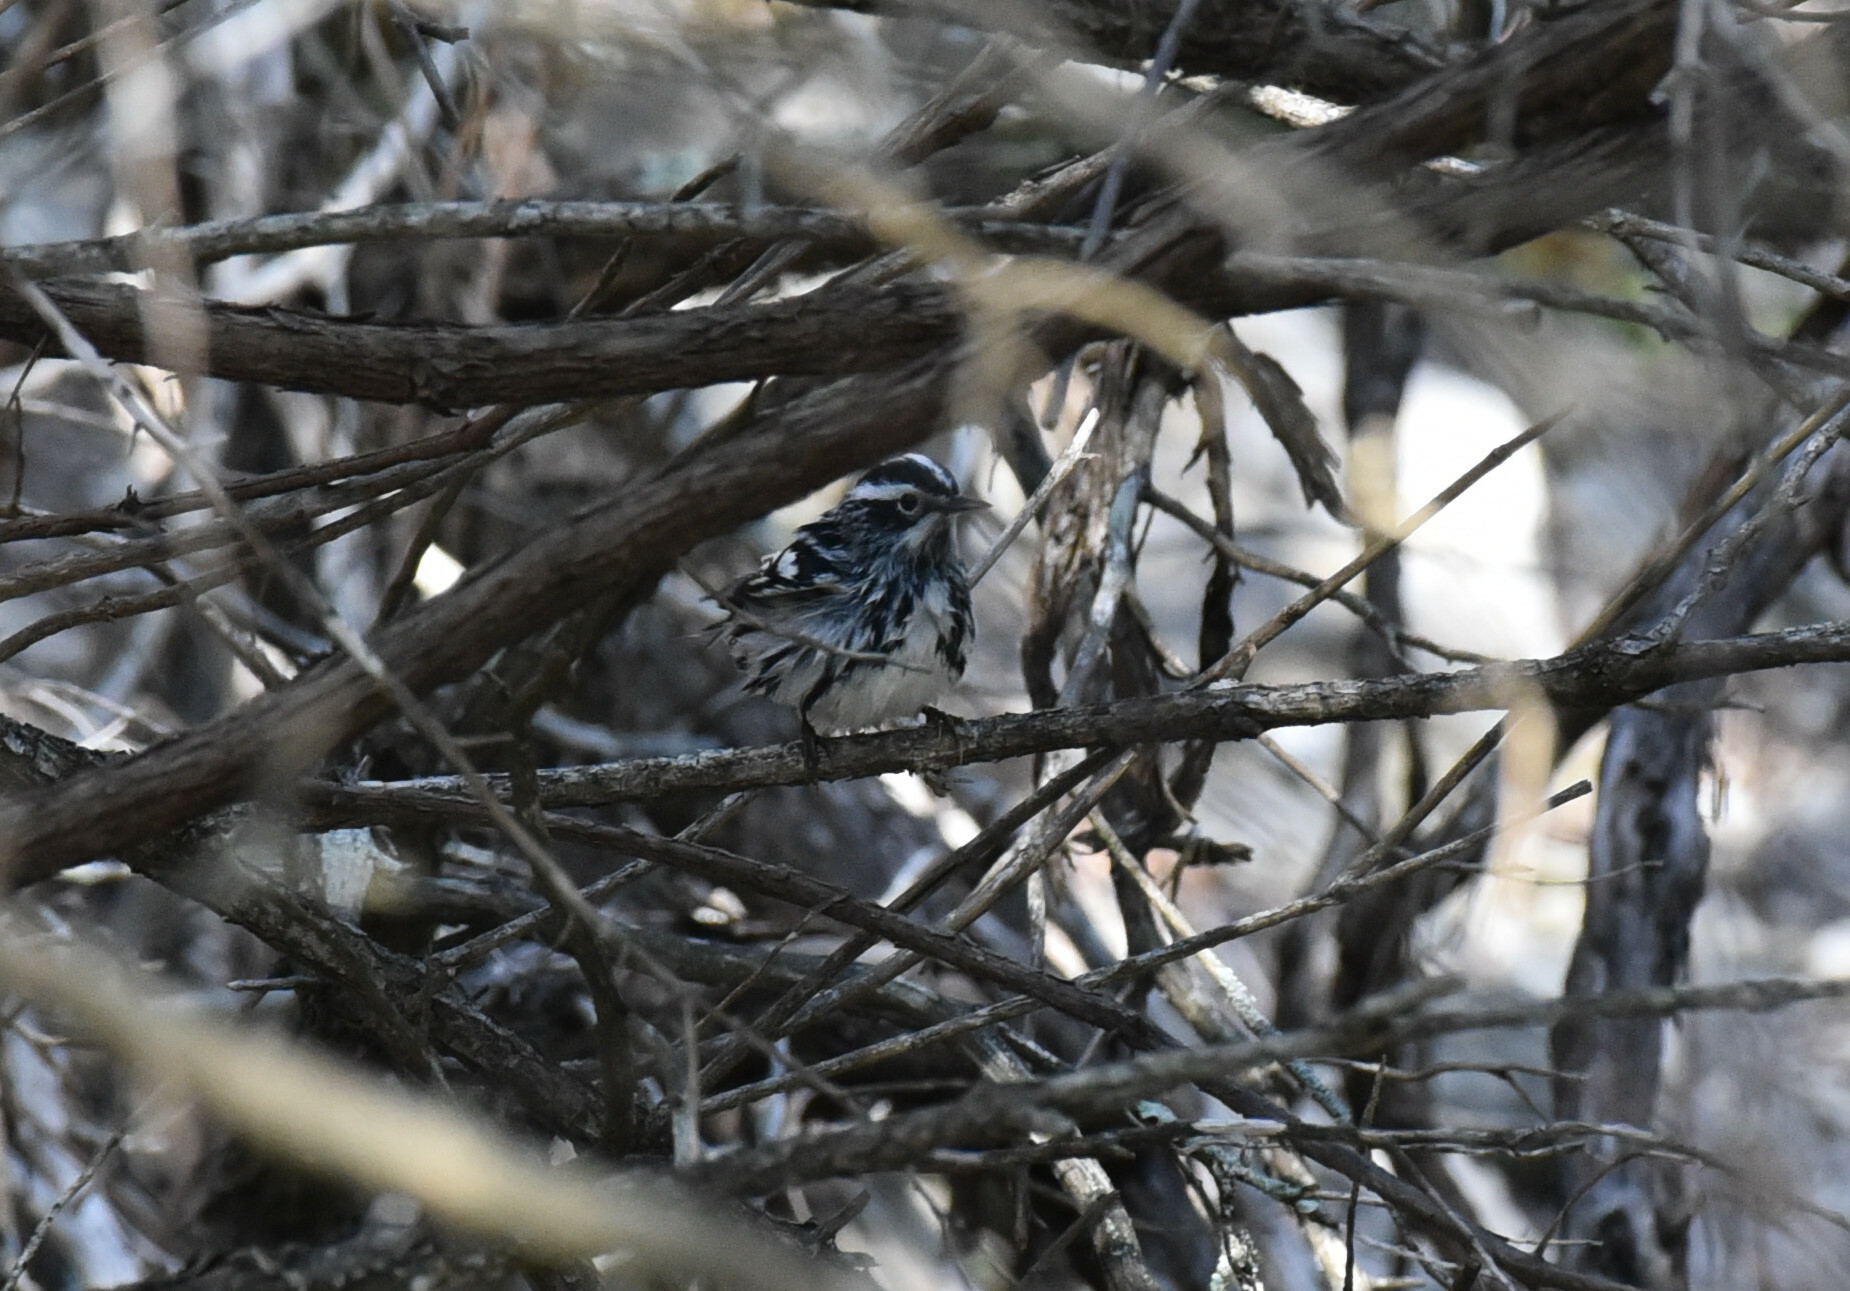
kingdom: Animalia
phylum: Chordata
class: Aves
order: Passeriformes
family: Parulidae
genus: Mniotilta
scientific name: Mniotilta varia
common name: Black-and-white warbler
